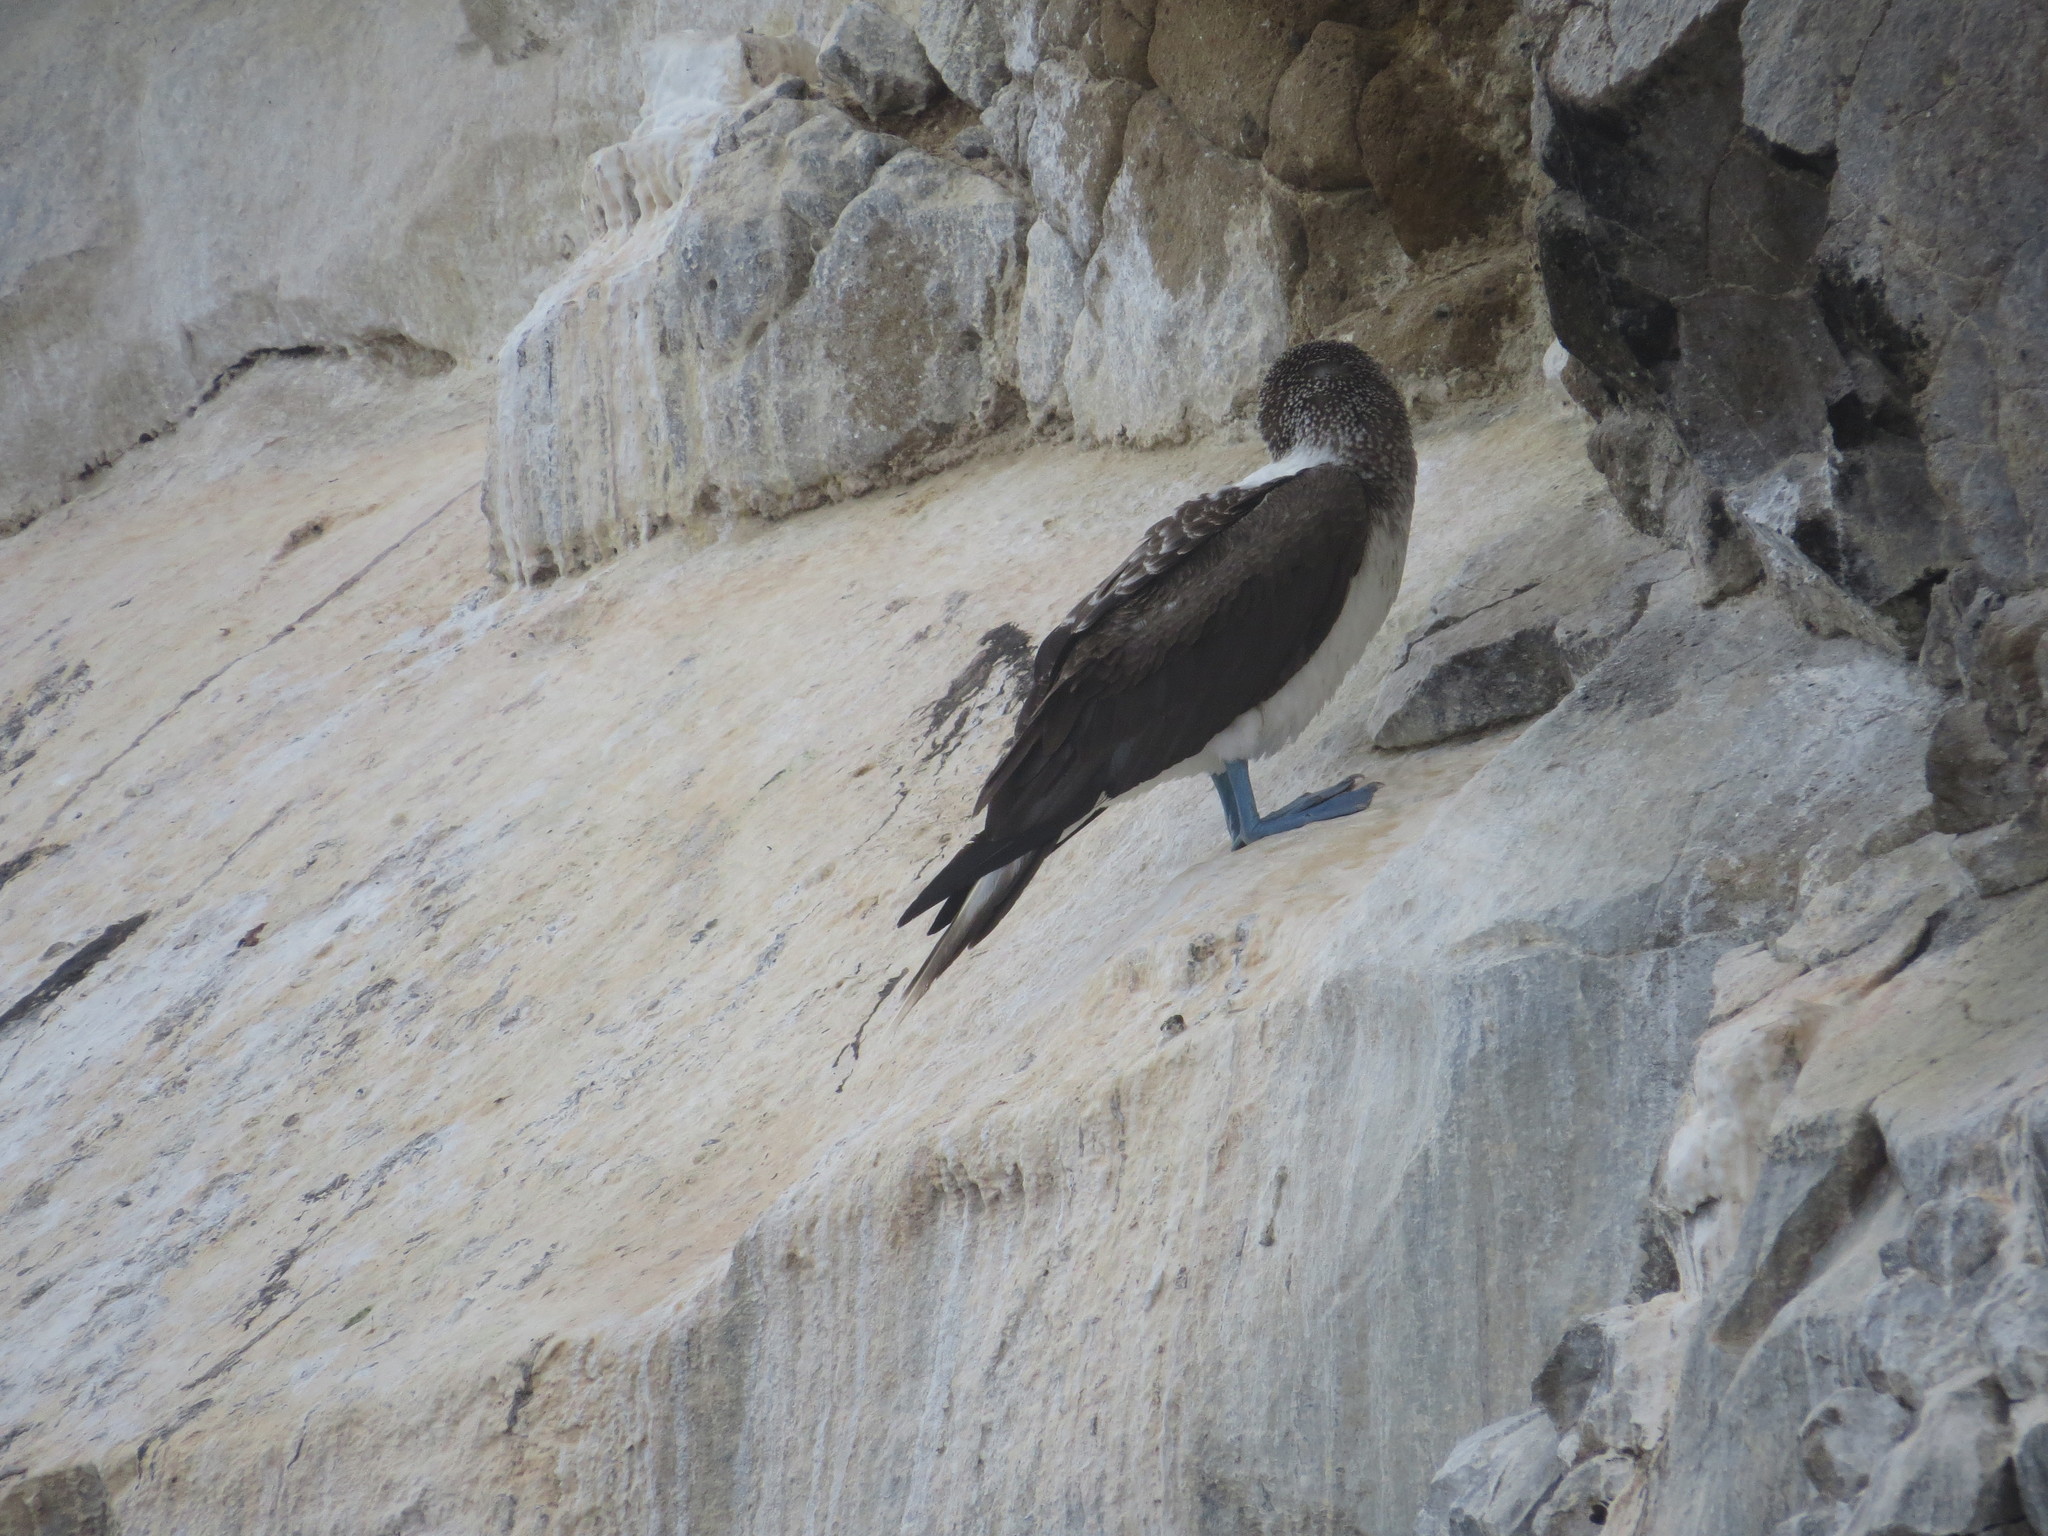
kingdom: Animalia
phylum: Chordata
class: Aves
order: Suliformes
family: Sulidae
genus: Sula
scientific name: Sula nebouxii
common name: Blue-footed booby
